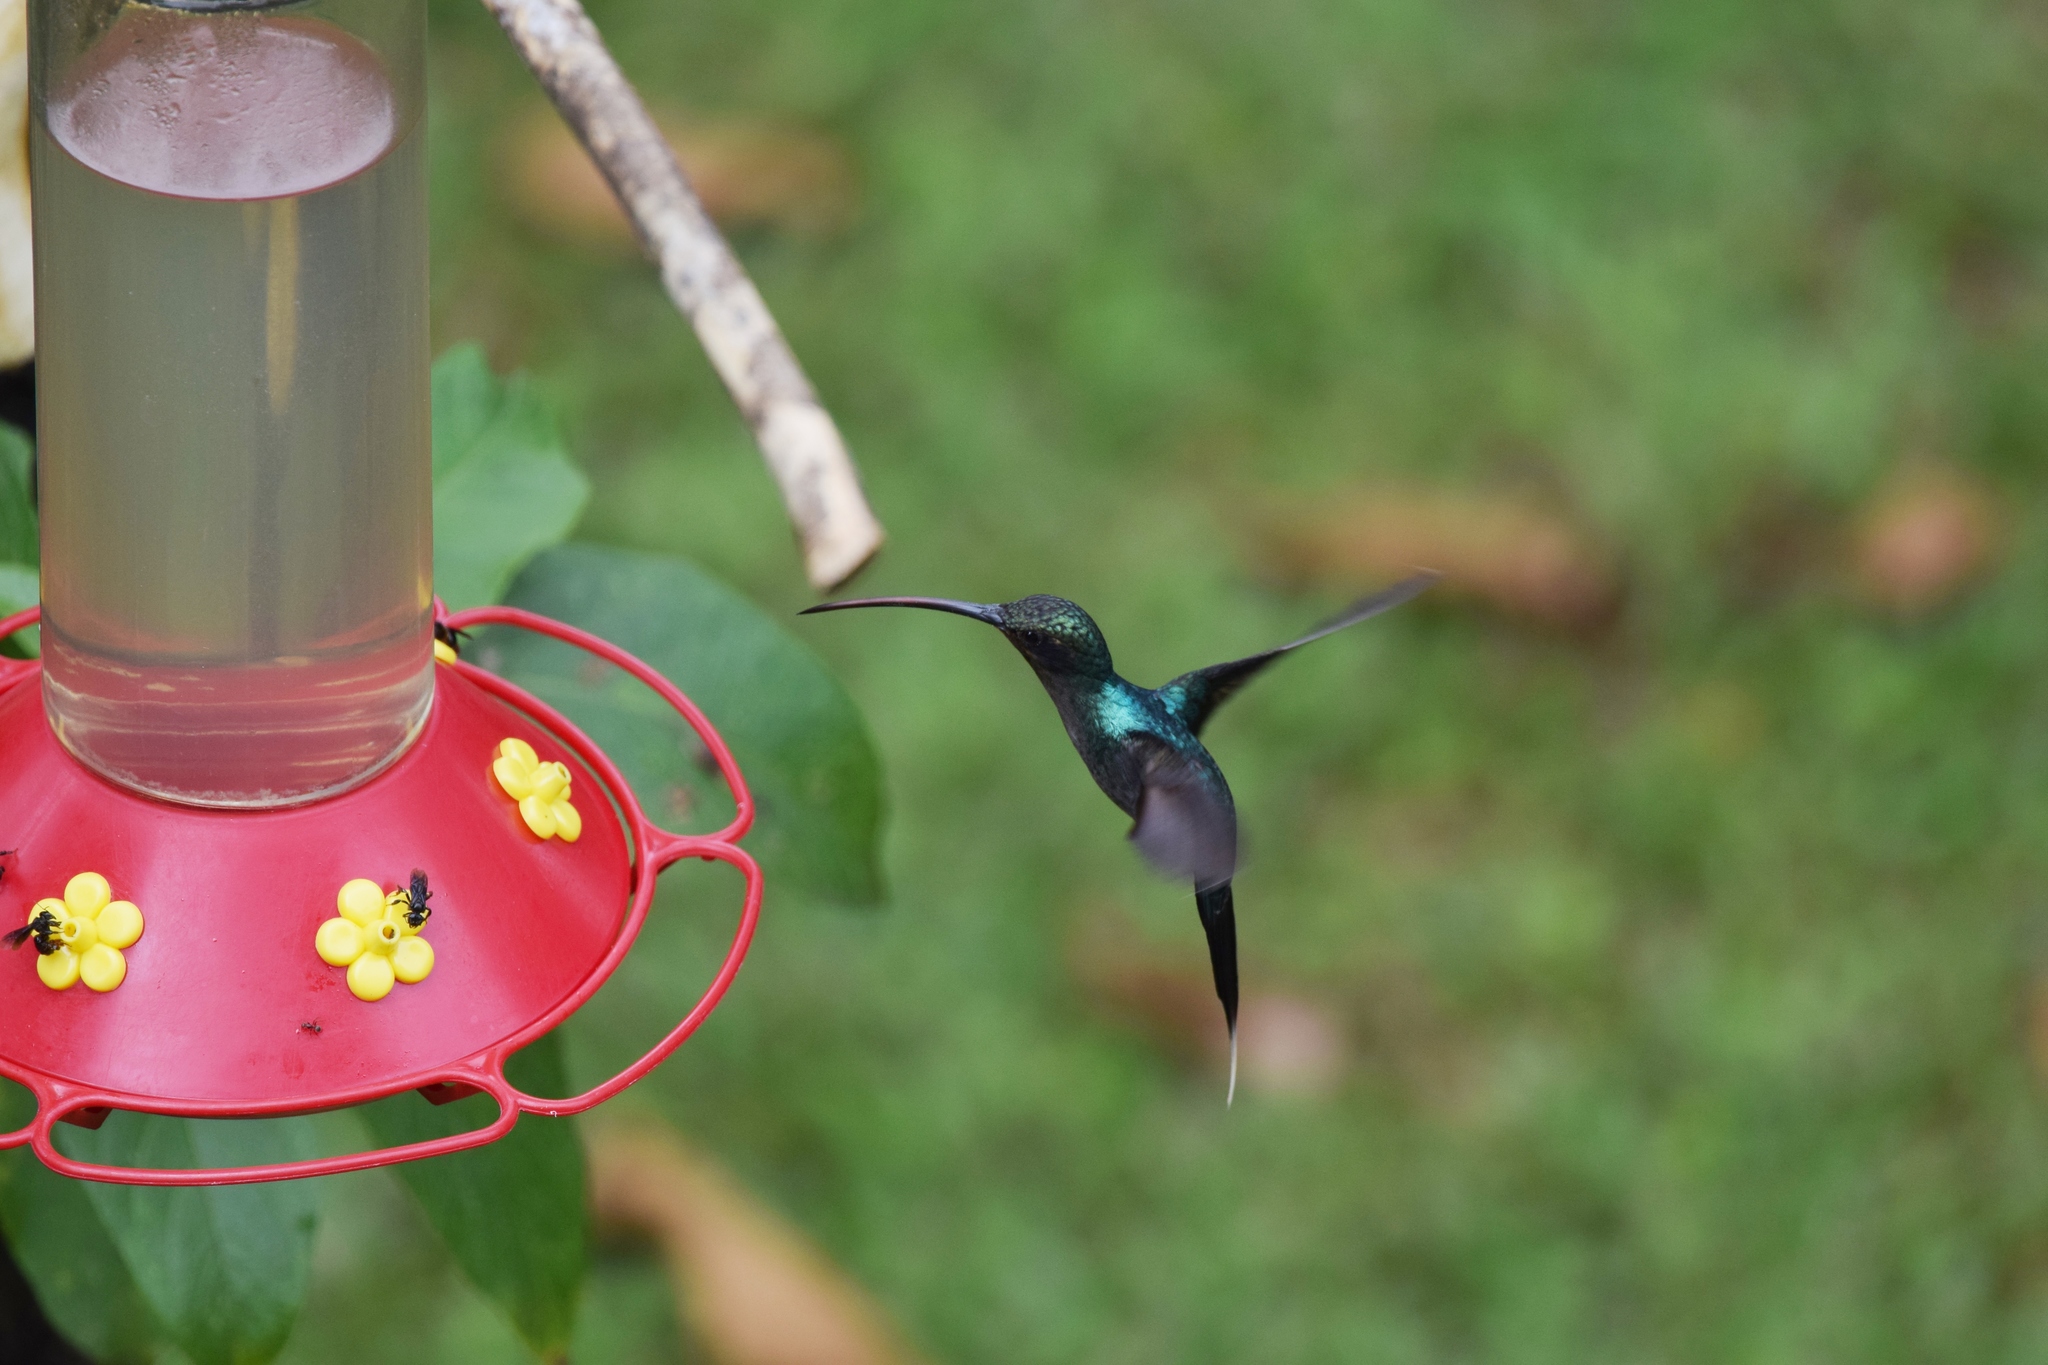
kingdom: Animalia
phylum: Chordata
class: Aves
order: Apodiformes
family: Trochilidae
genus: Phaethornis
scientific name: Phaethornis guy
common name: Green hermit
